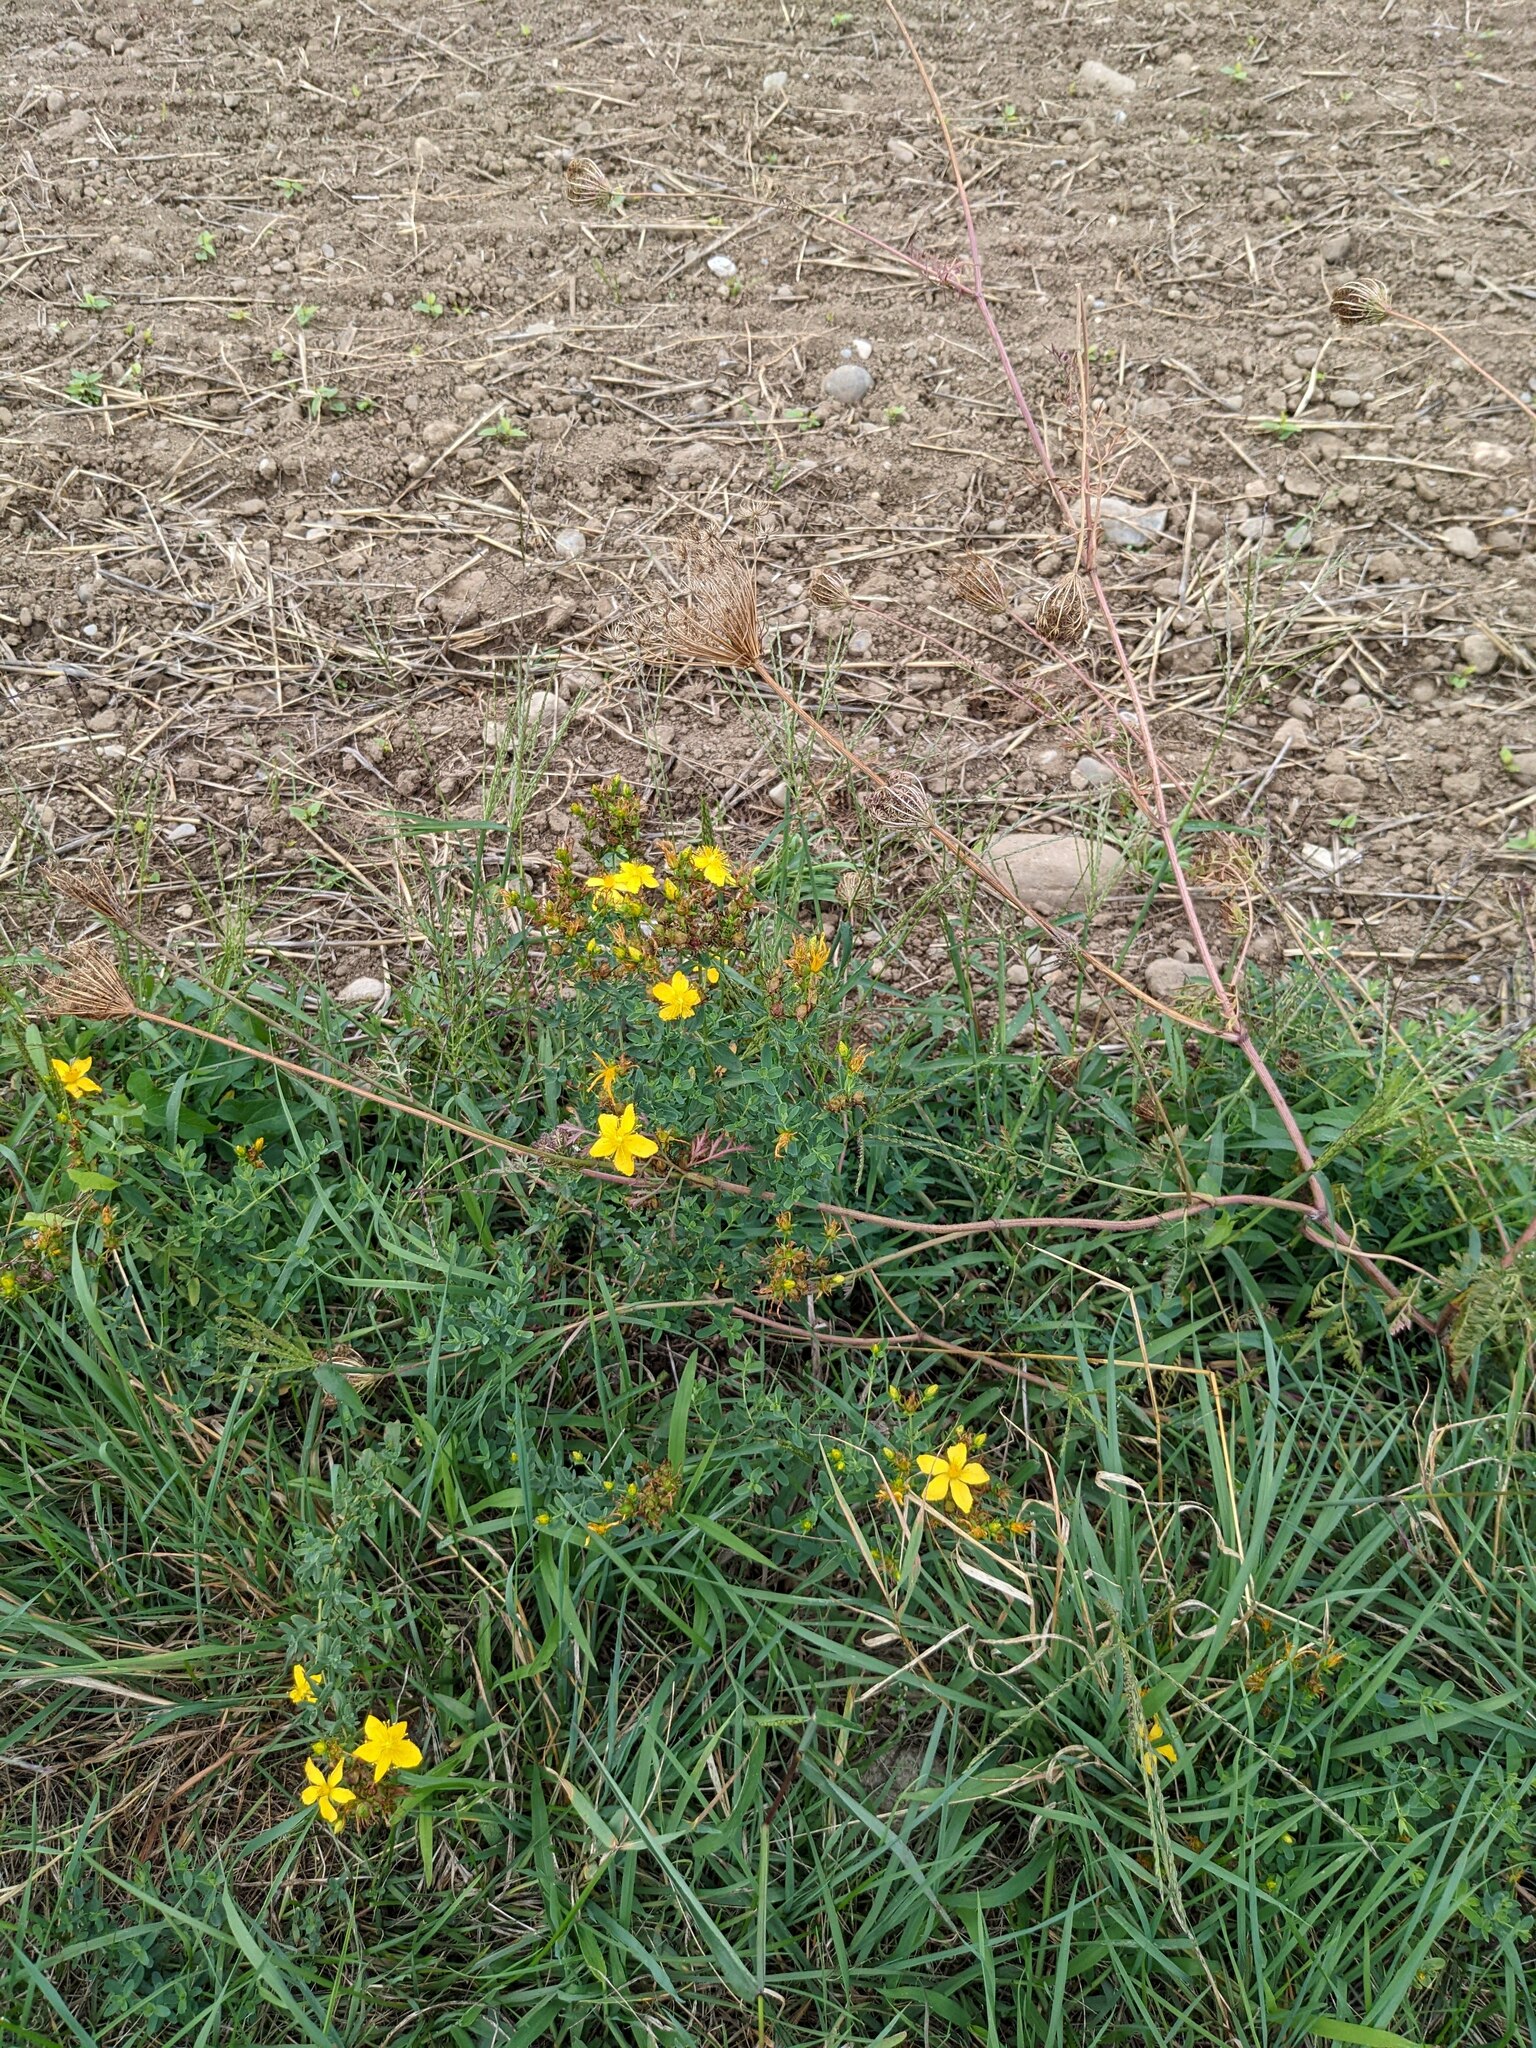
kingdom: Plantae
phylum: Tracheophyta
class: Magnoliopsida
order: Malpighiales
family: Hypericaceae
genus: Hypericum
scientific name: Hypericum perforatum
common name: Common st. johnswort
